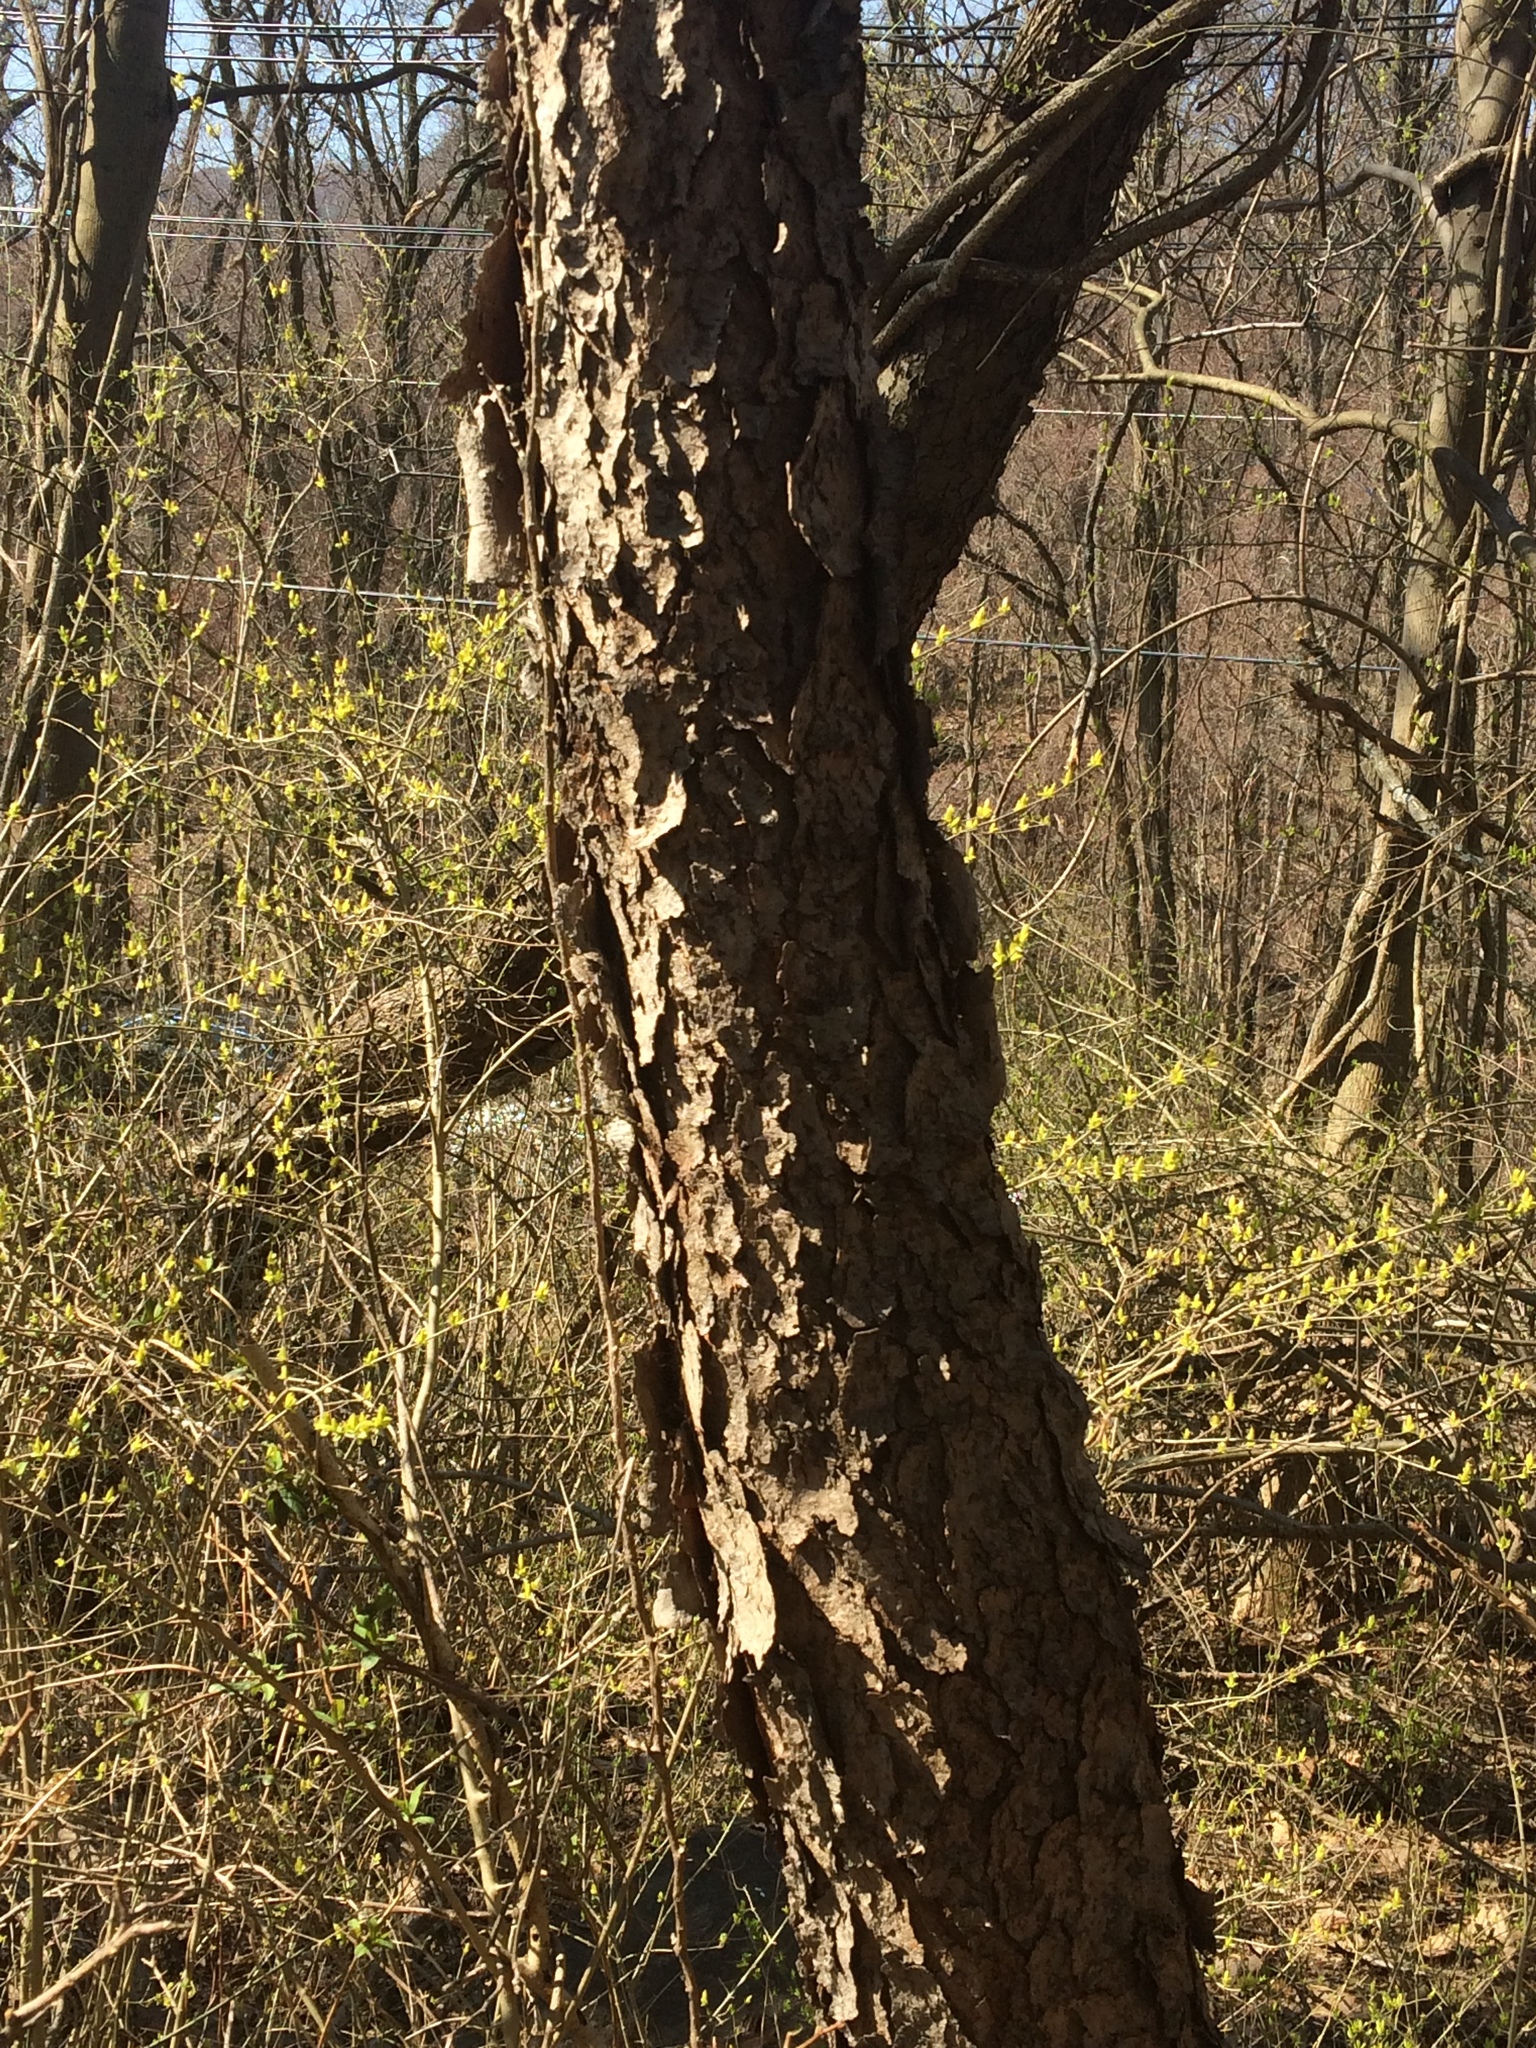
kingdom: Plantae
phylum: Tracheophyta
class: Magnoliopsida
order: Rosales
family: Rosaceae
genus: Prunus
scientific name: Prunus serotina
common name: Black cherry
